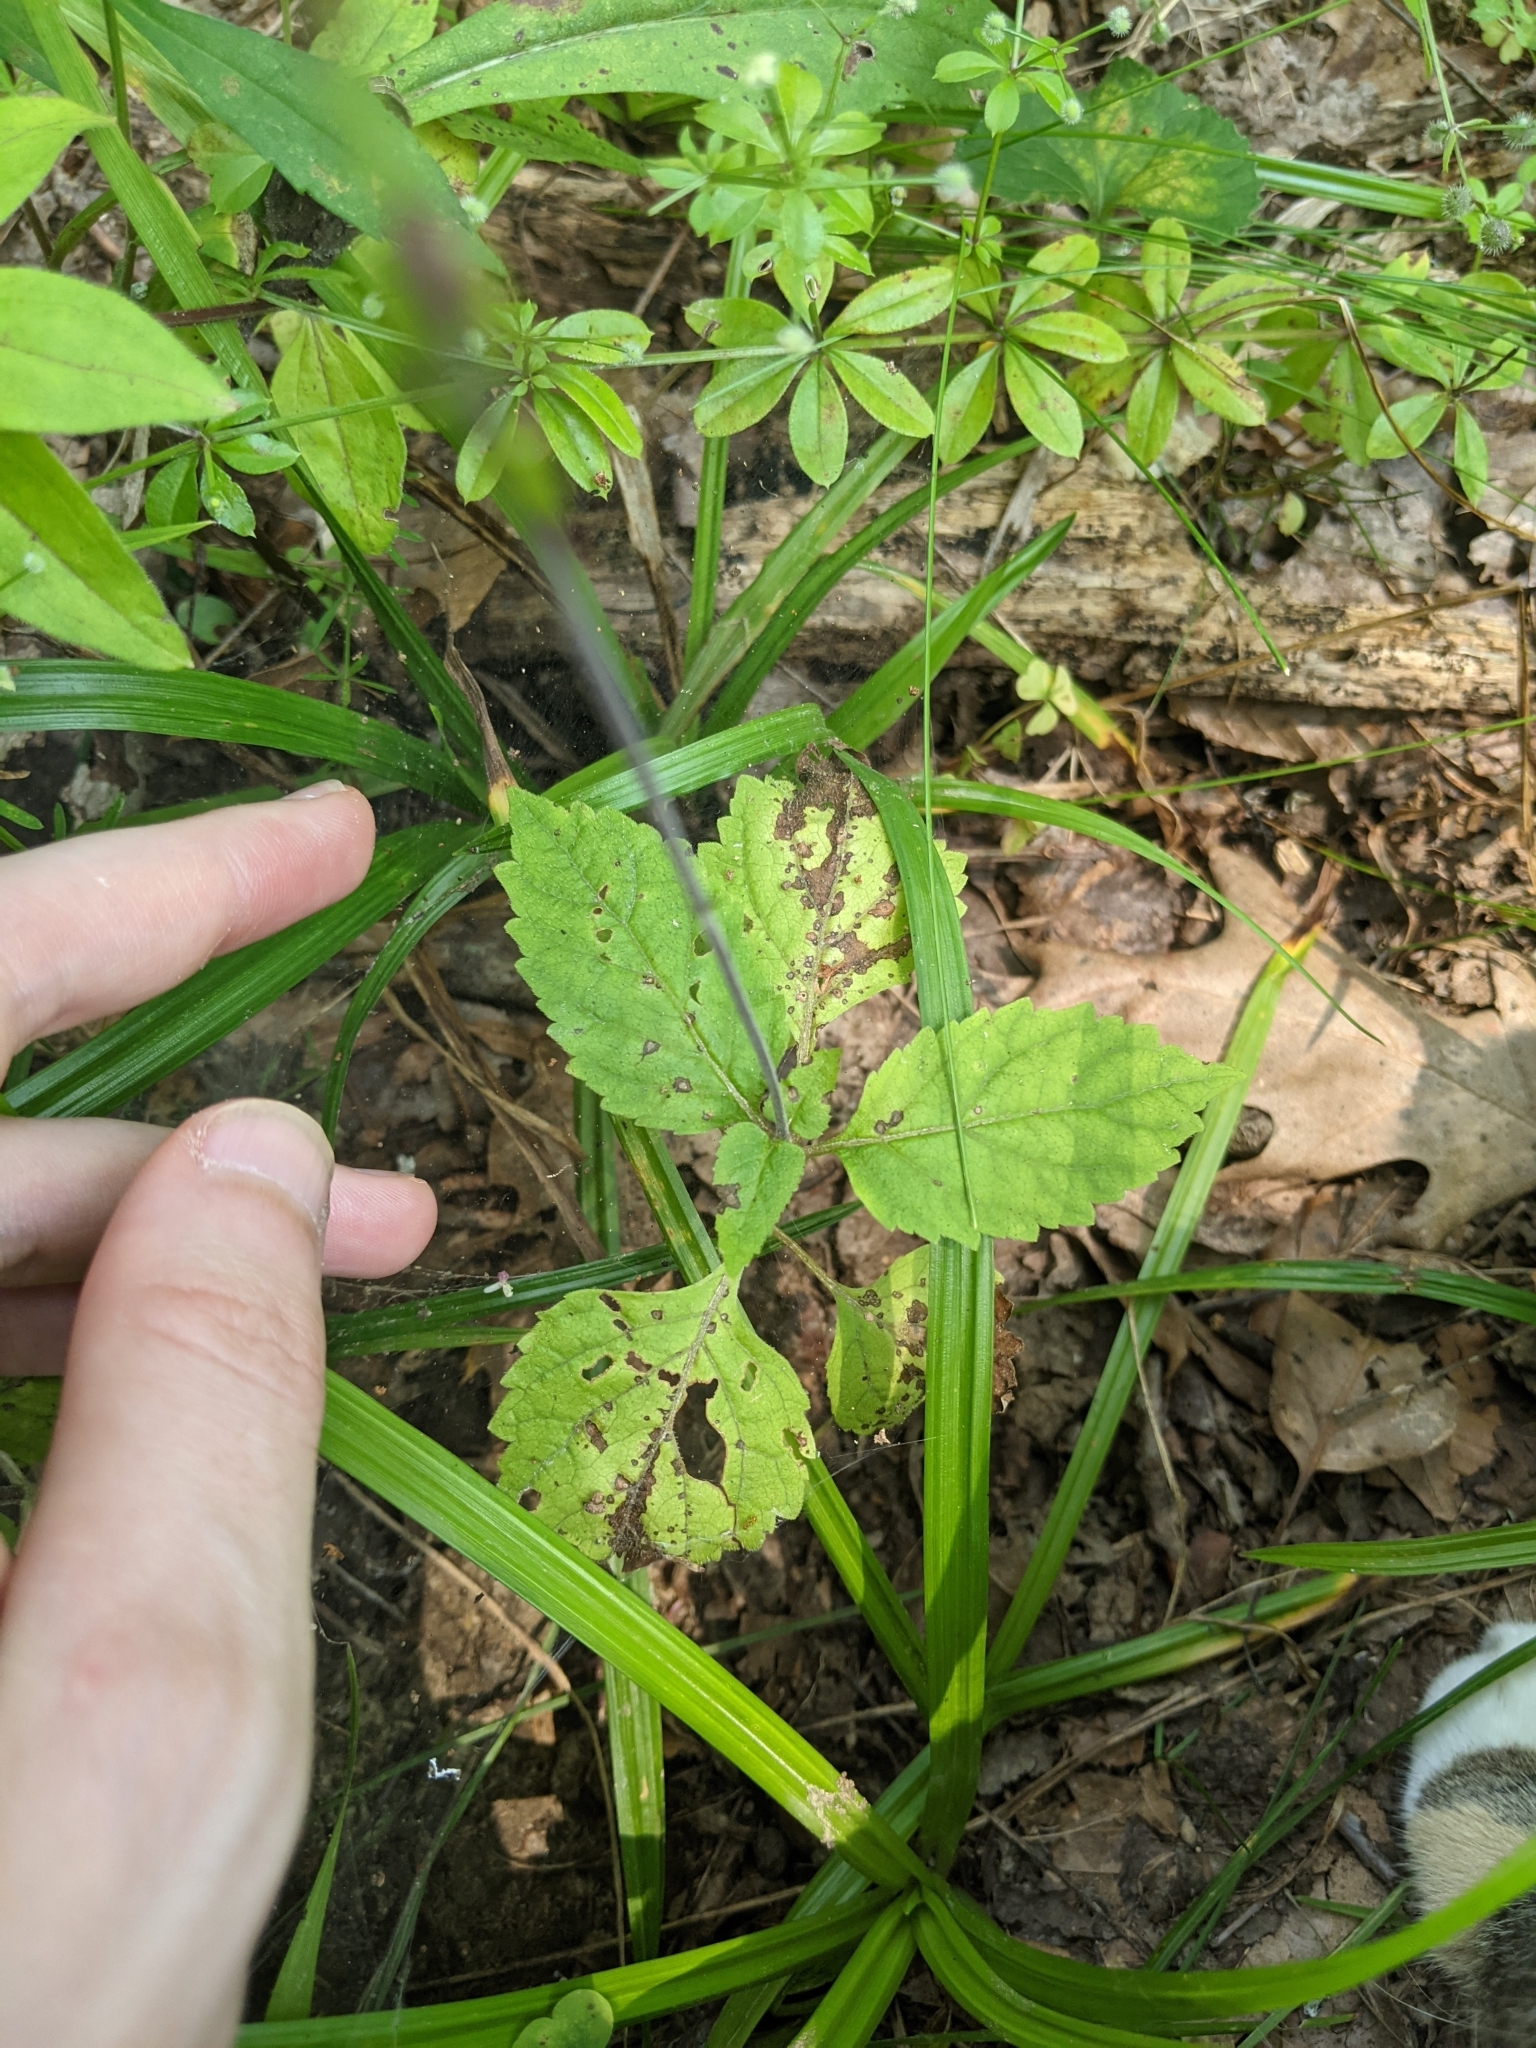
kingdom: Plantae
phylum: Tracheophyta
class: Magnoliopsida
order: Lamiales
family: Phrymaceae
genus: Phryma
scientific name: Phryma leptostachya
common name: American lopseed
